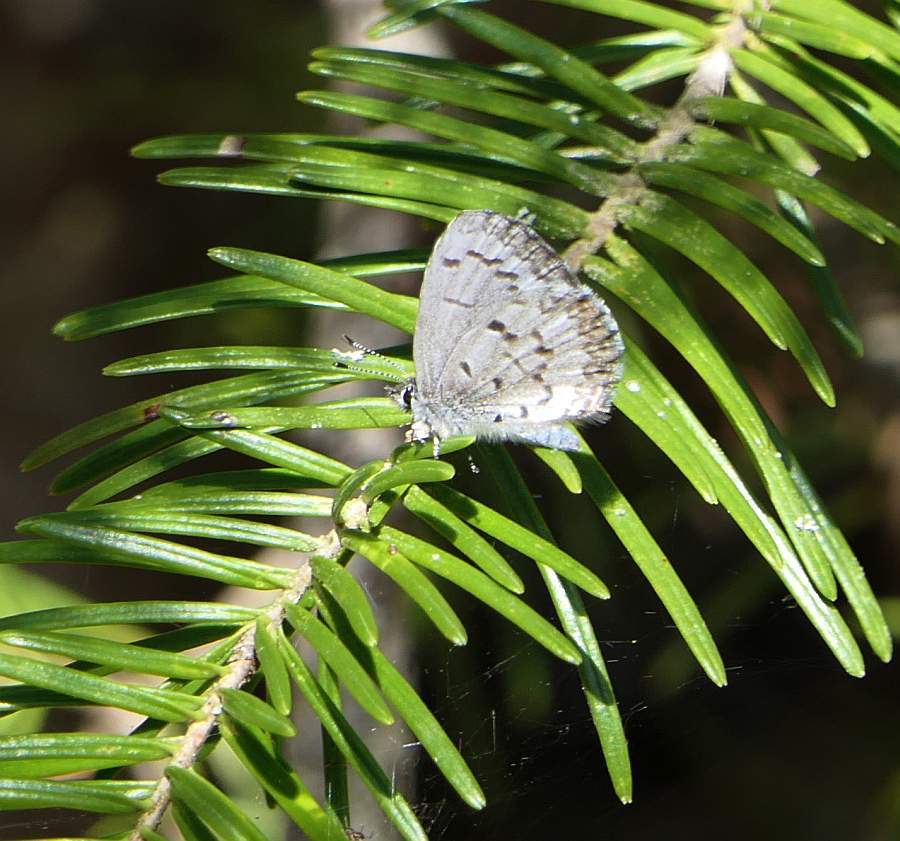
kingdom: Animalia
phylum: Arthropoda
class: Insecta
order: Lepidoptera
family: Lycaenidae
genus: Celastrina
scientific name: Celastrina lucia
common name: Lucia azure
